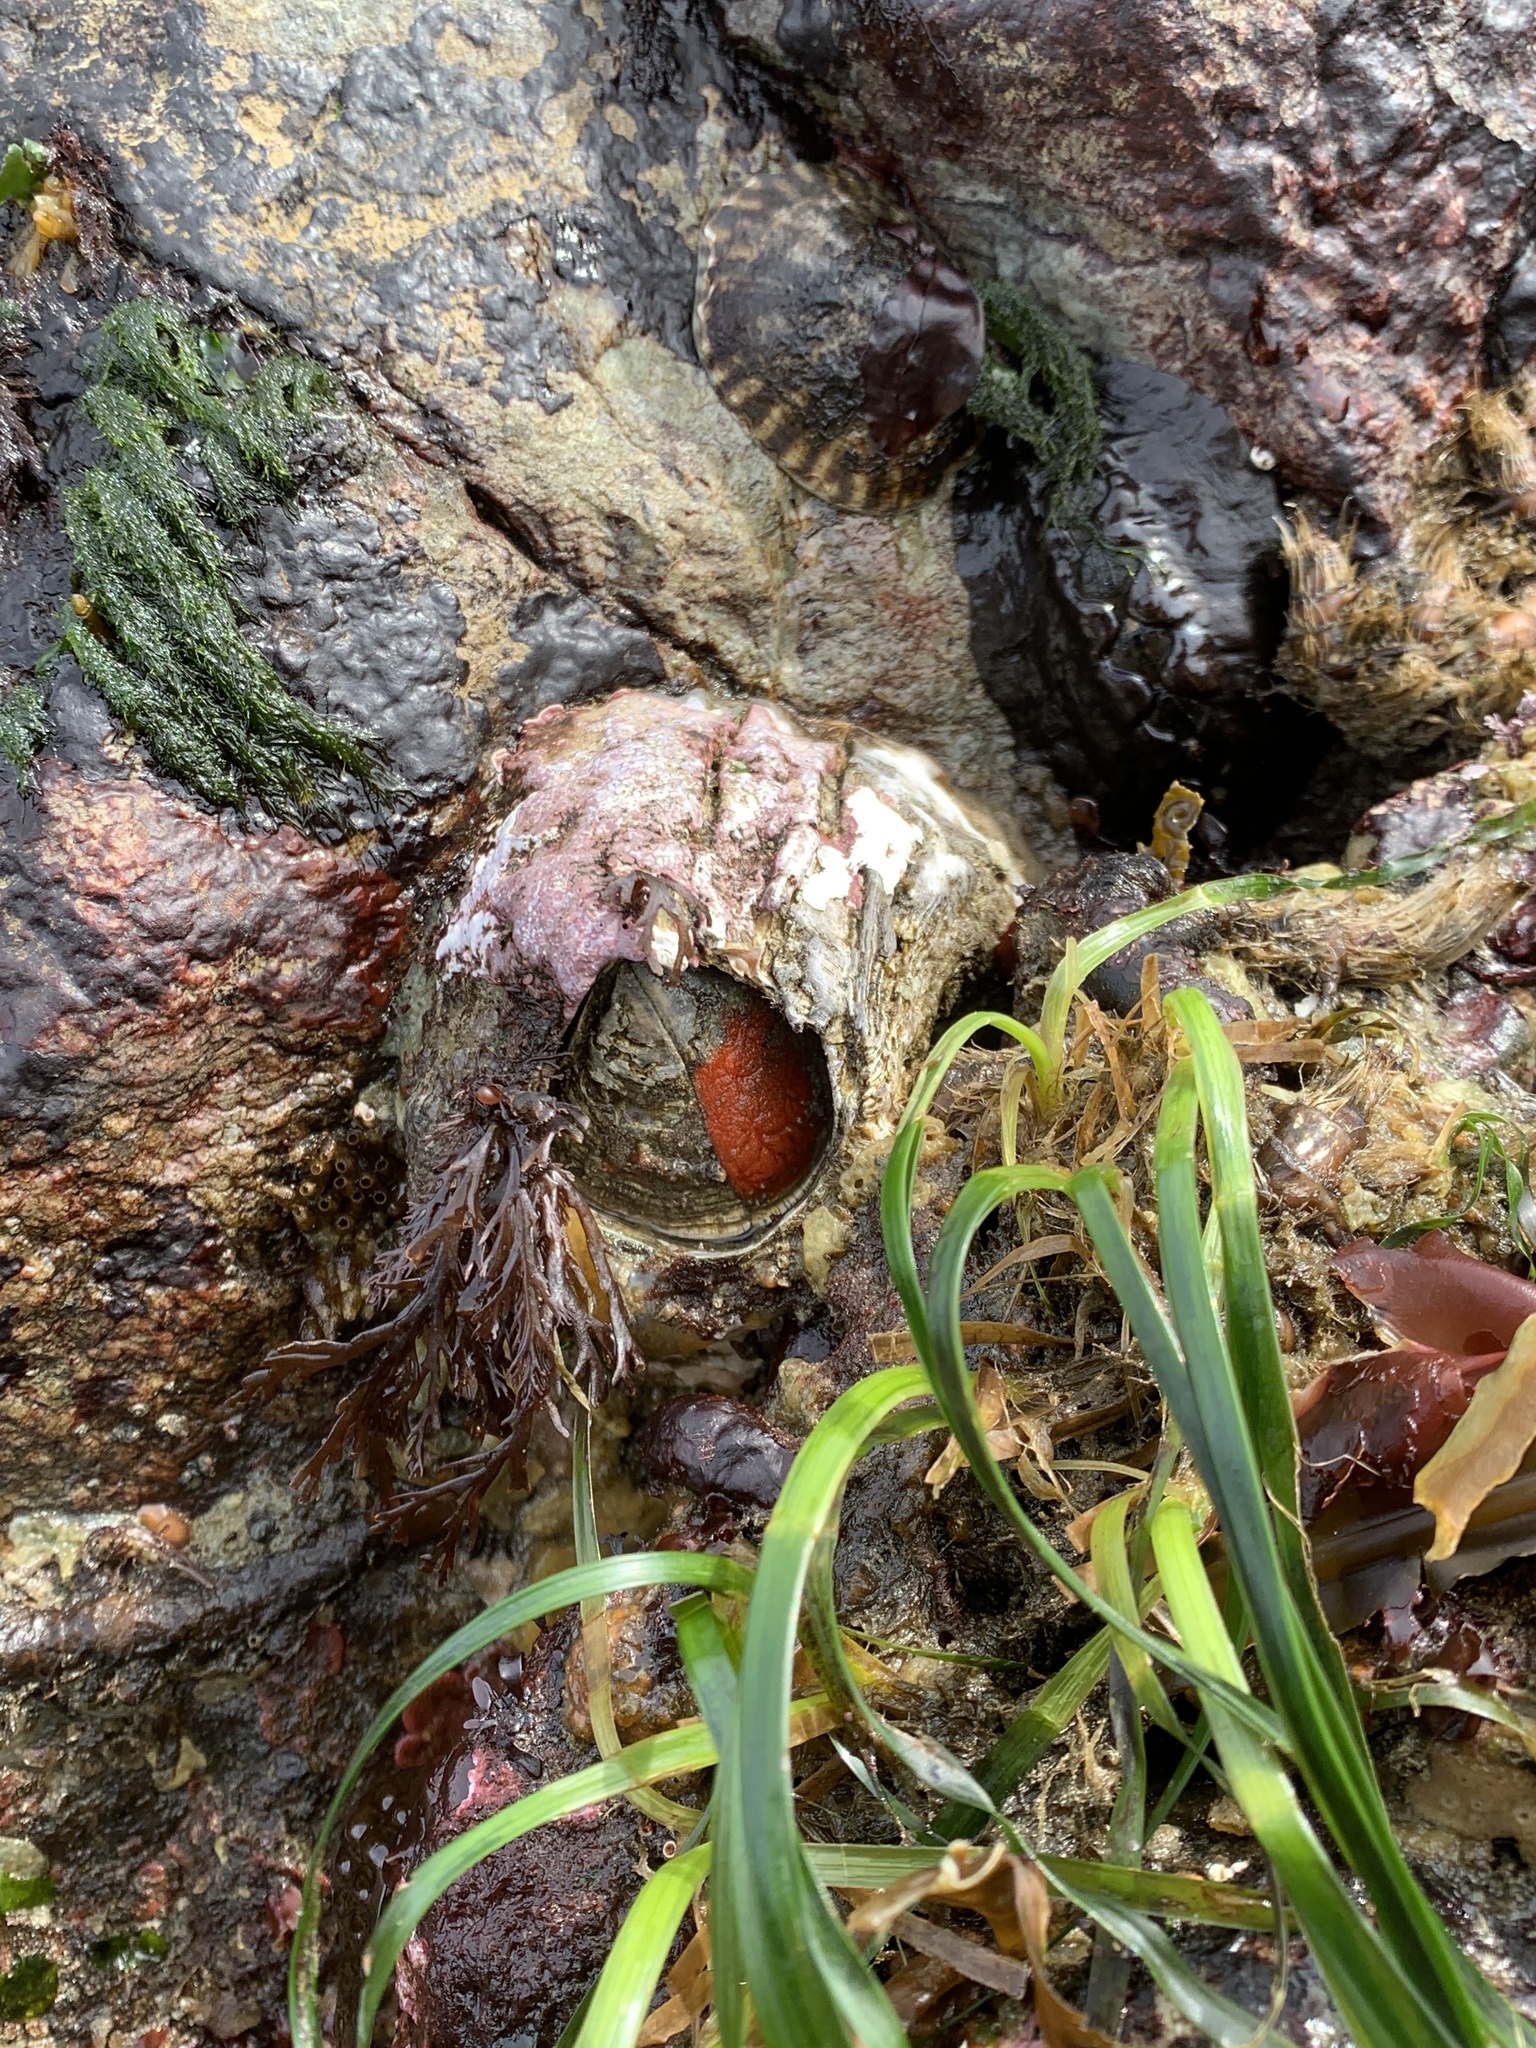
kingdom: Animalia
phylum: Arthropoda
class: Maxillopoda
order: Sessilia
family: Balanidae
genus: Balanus
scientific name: Balanus nubilus
